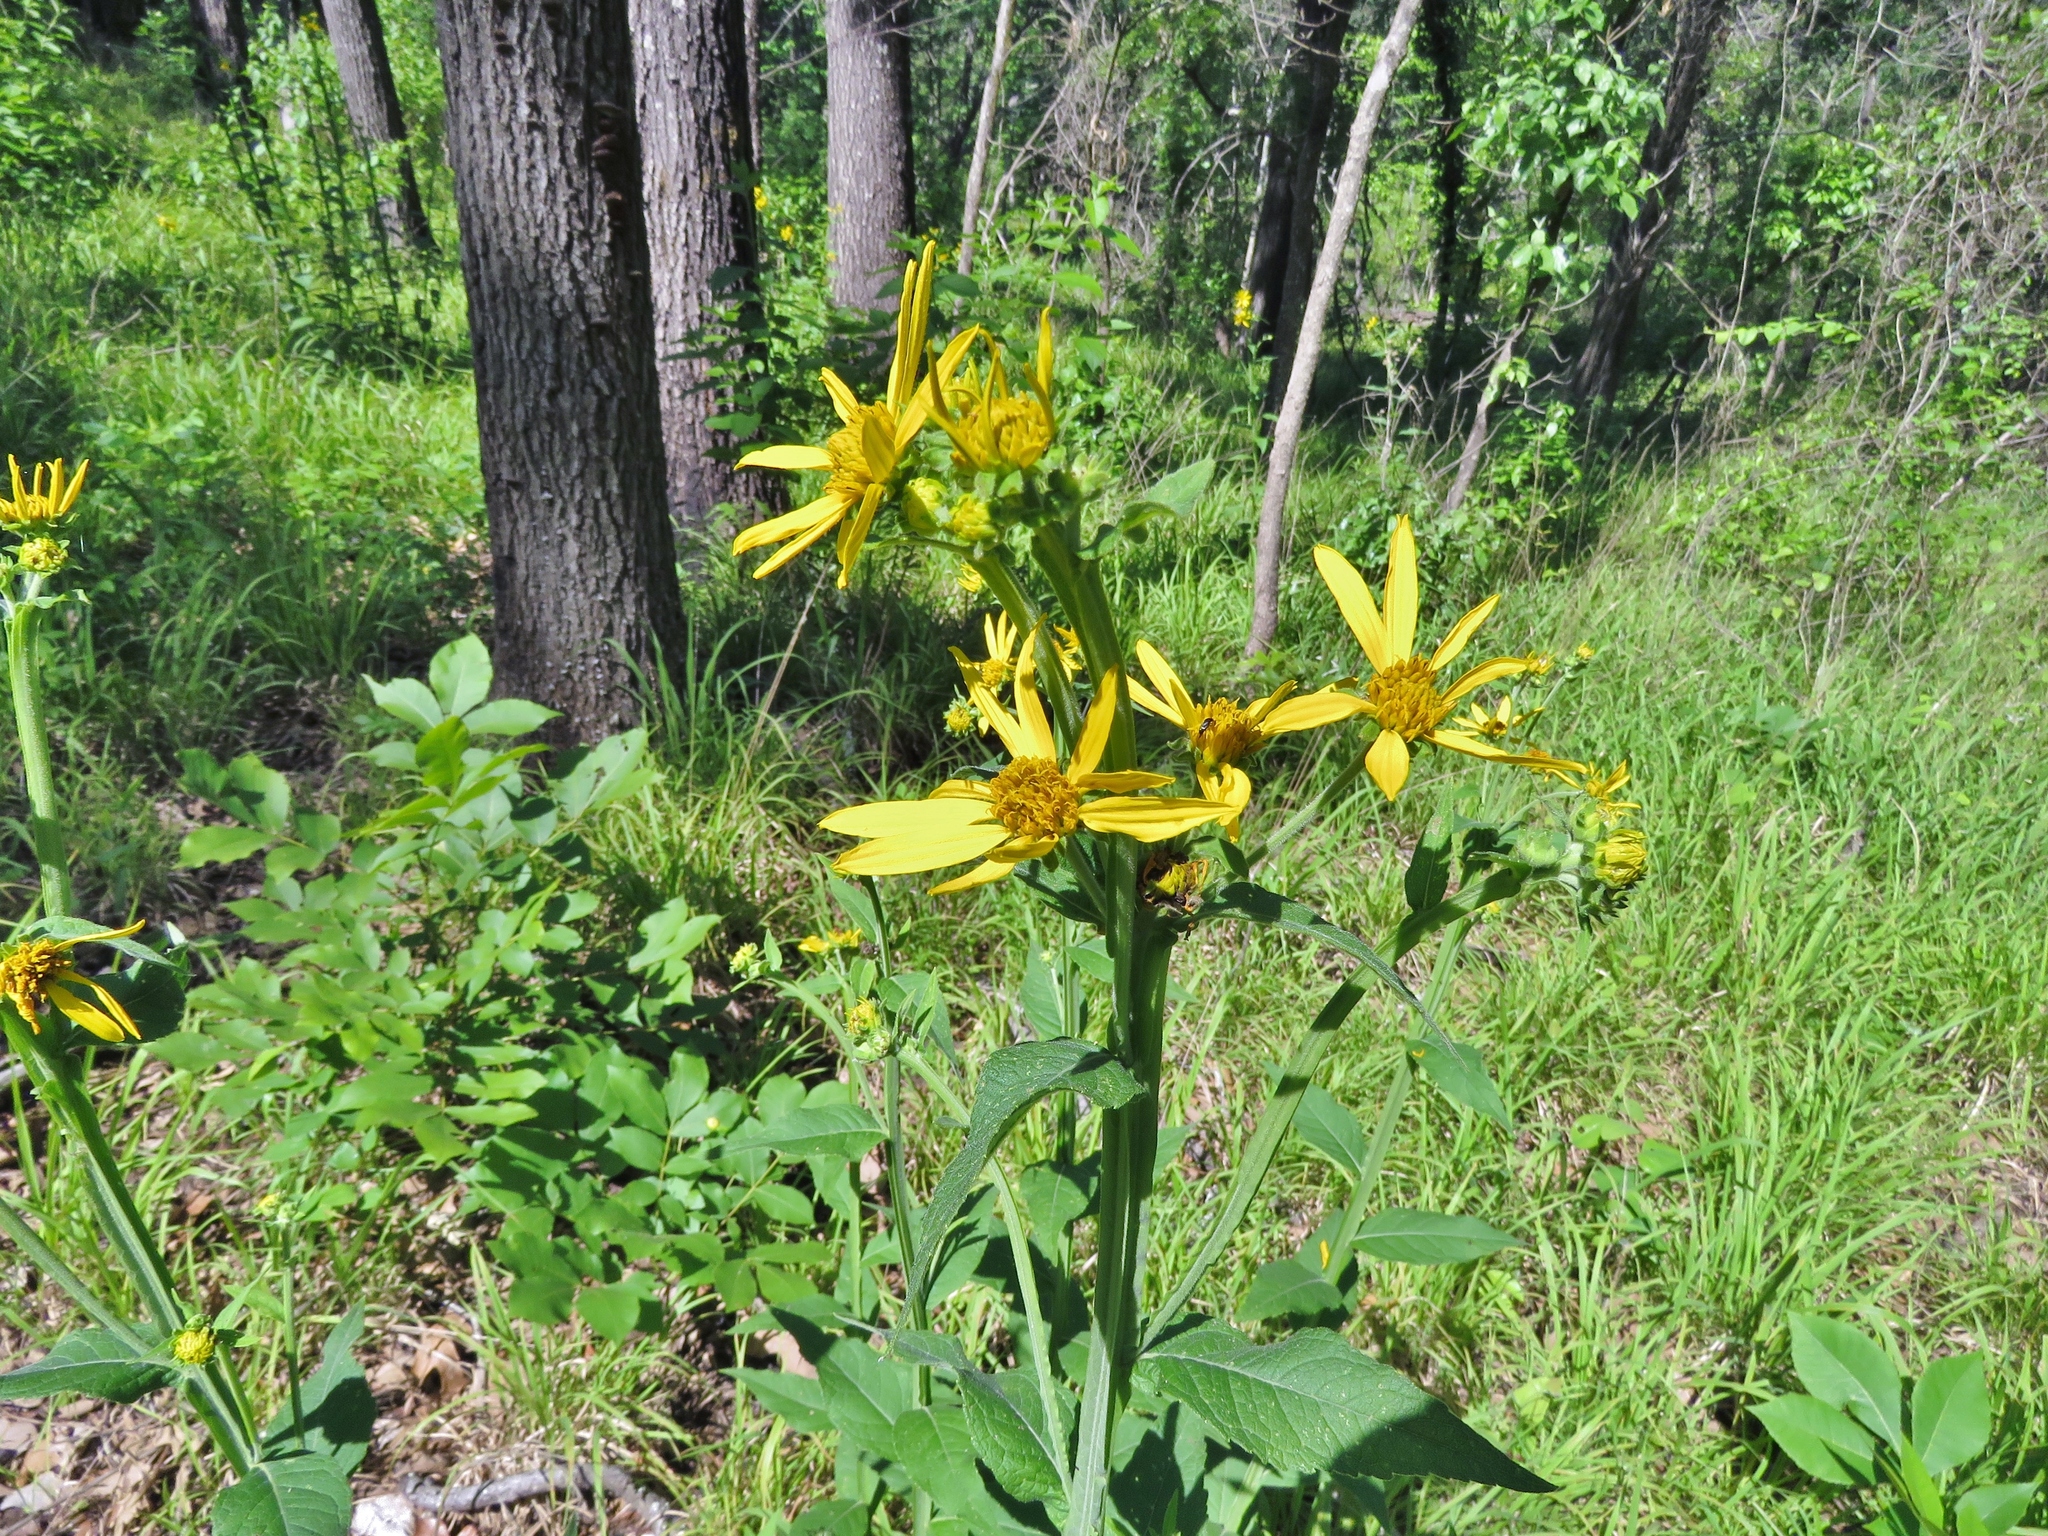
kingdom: Plantae
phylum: Tracheophyta
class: Magnoliopsida
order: Asterales
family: Asteraceae
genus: Verbesina
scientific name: Verbesina helianthoides
